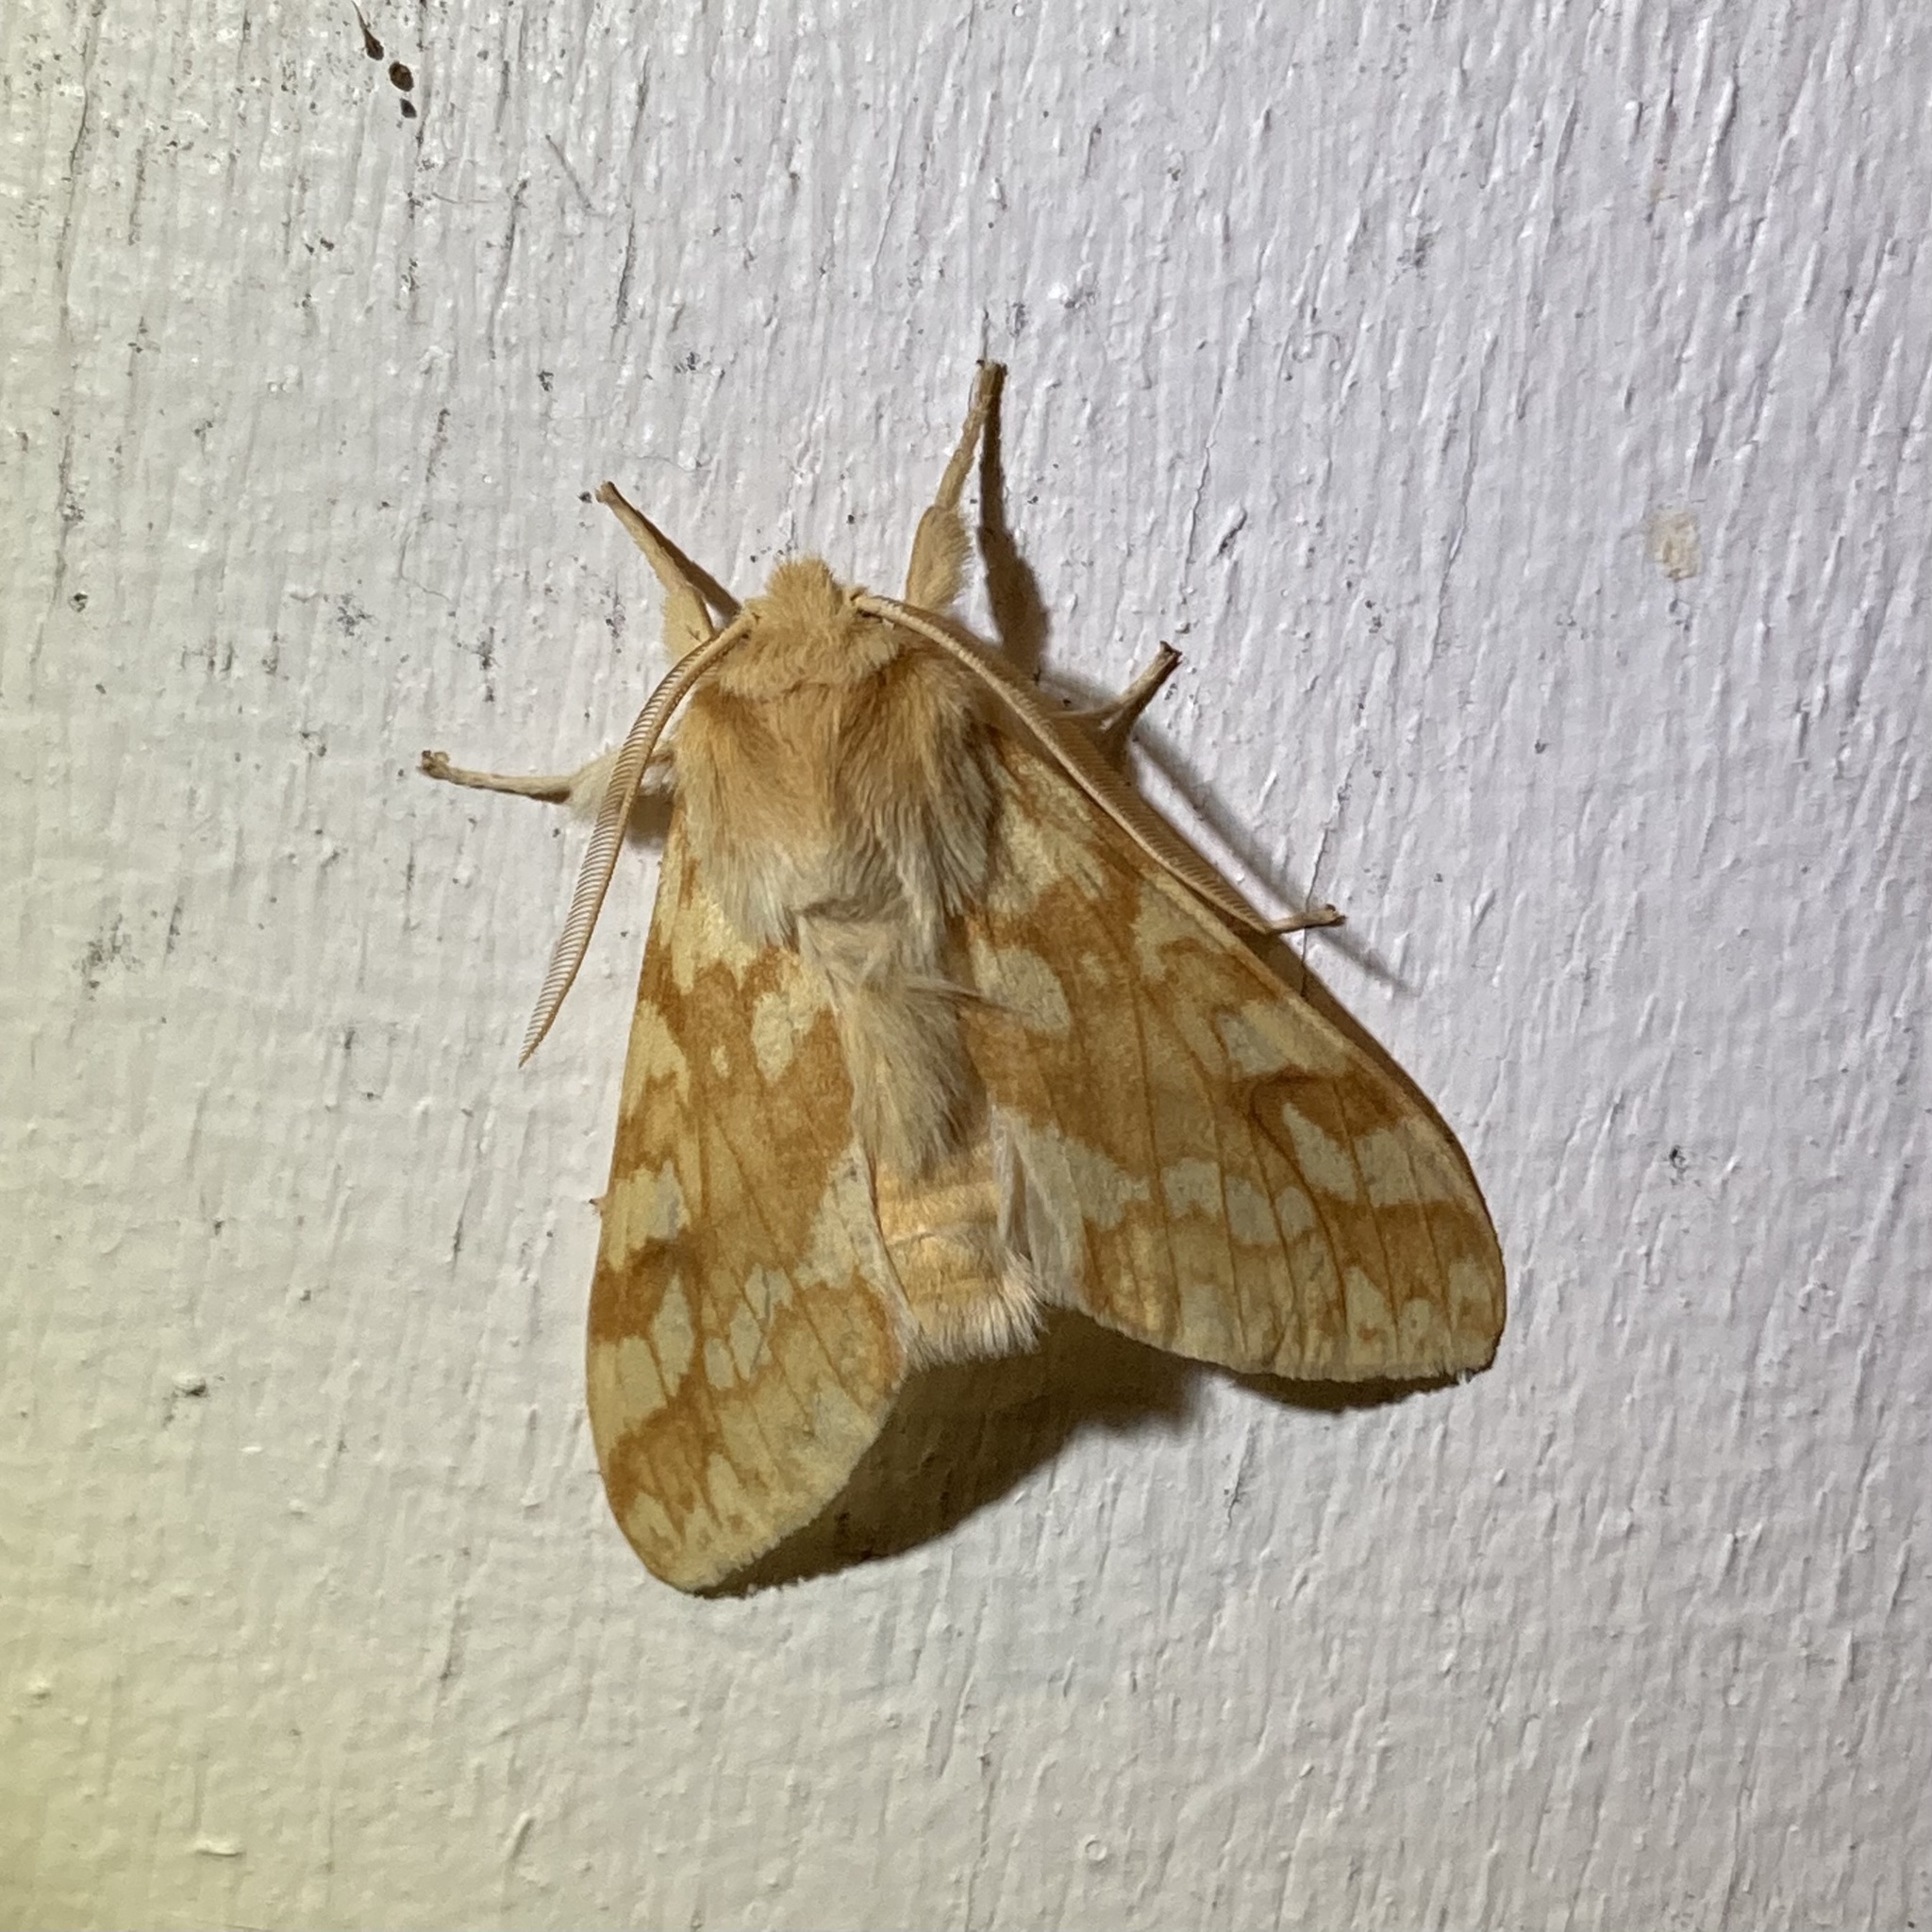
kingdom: Animalia
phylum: Arthropoda
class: Insecta
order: Lepidoptera
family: Erebidae
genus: Lophocampa
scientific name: Lophocampa maculata
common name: Spotted tussock moth
